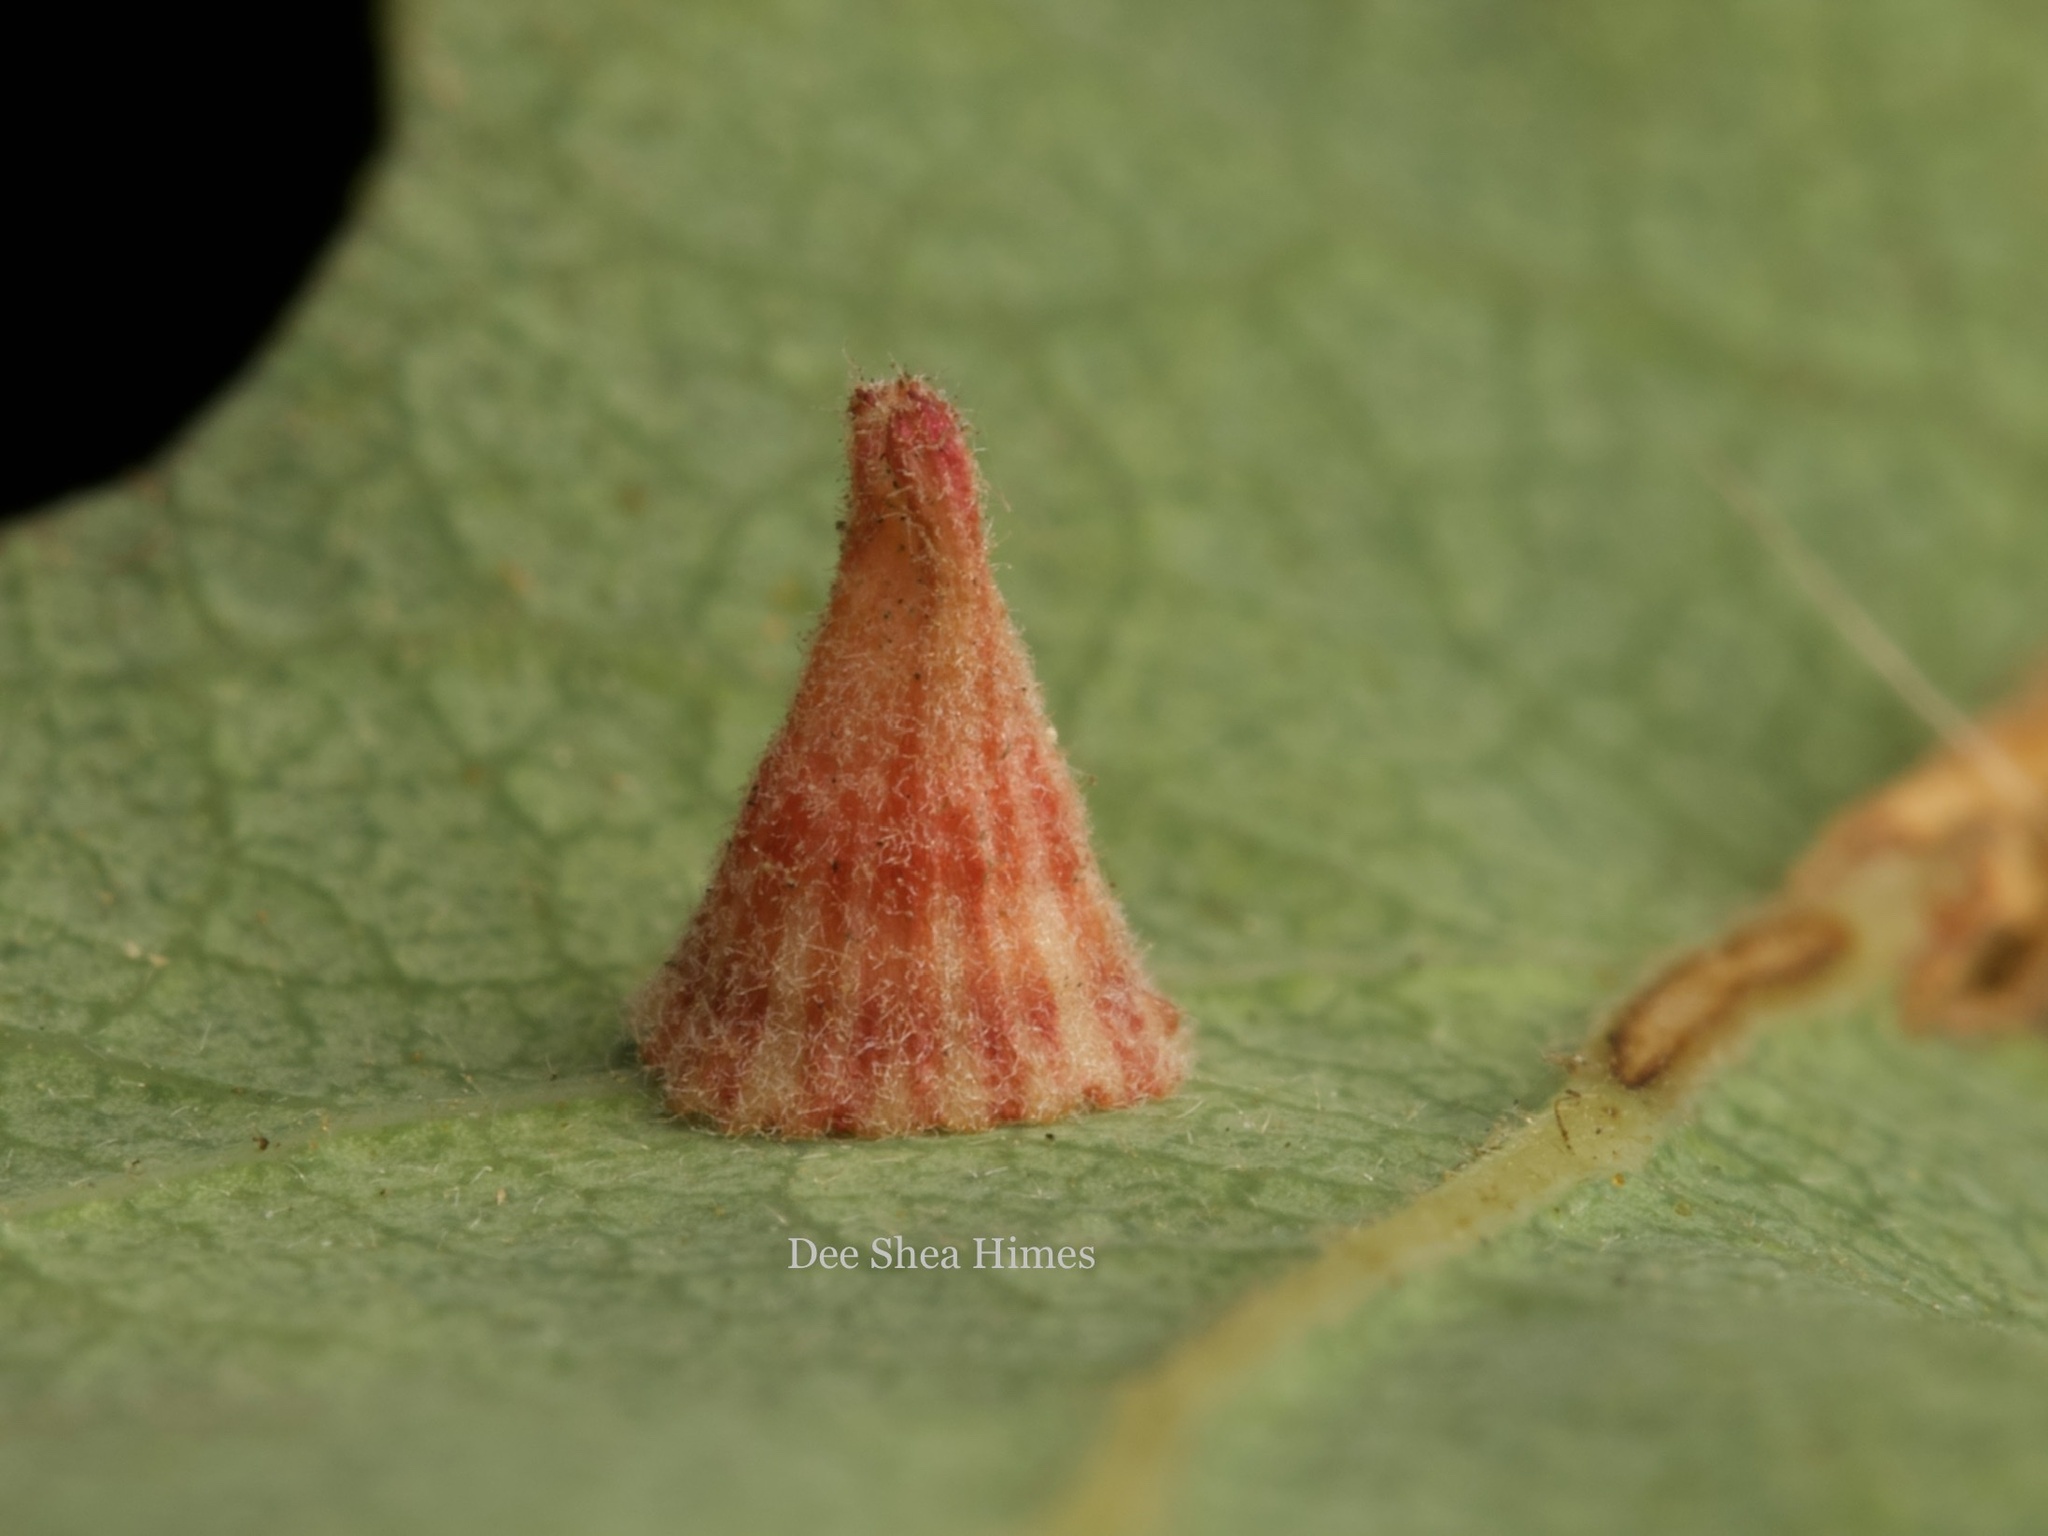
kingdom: Animalia
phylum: Arthropoda
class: Insecta
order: Hymenoptera
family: Cynipidae
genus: Andricus
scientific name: Andricus
